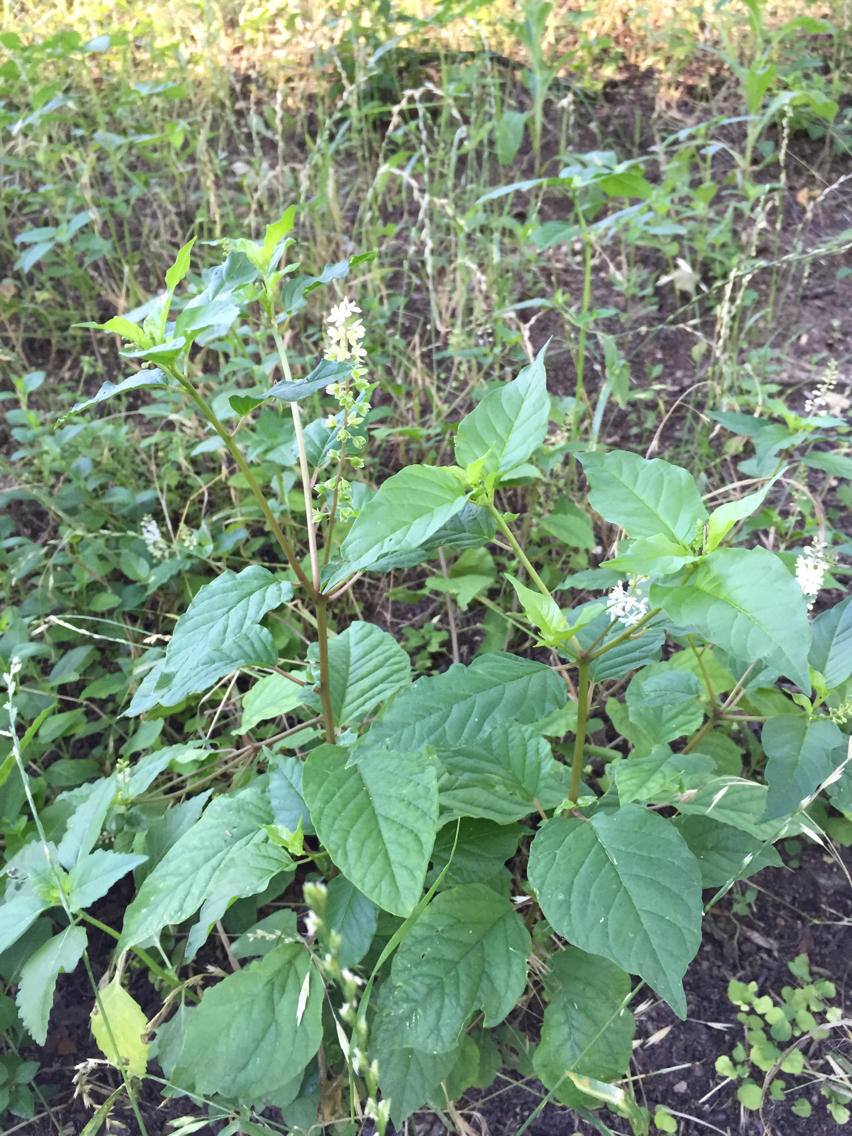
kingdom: Plantae
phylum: Tracheophyta
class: Magnoliopsida
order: Caryophyllales
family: Phytolaccaceae
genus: Rivina
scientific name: Rivina humilis
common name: Rougeplant
